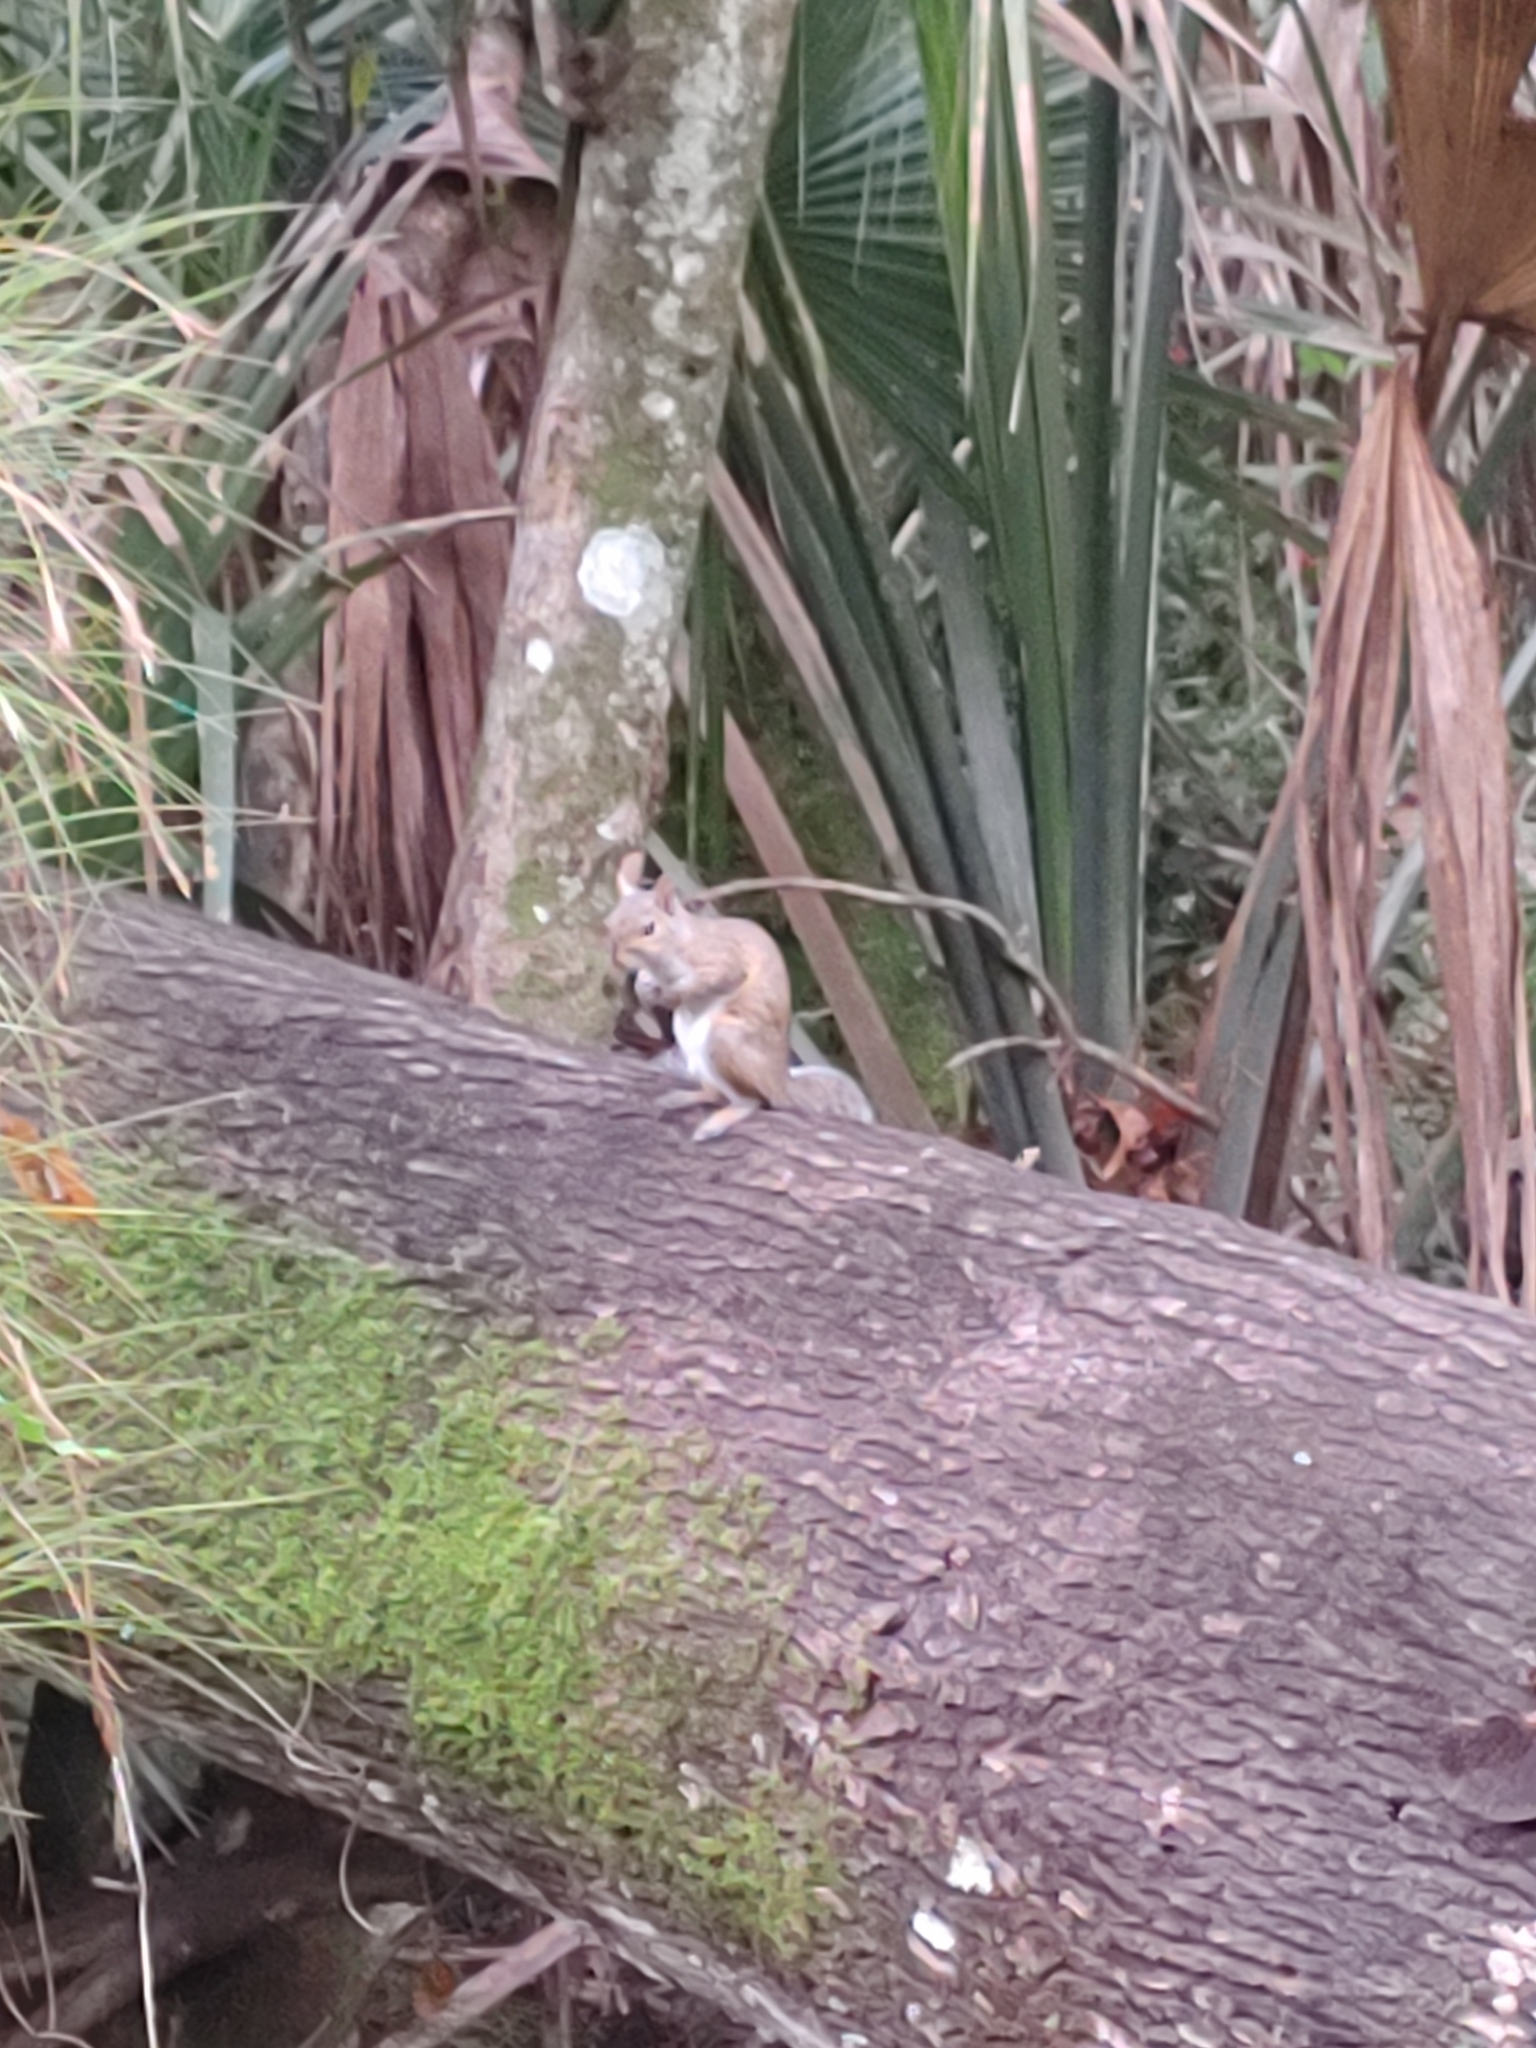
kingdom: Animalia
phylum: Chordata
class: Mammalia
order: Rodentia
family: Sciuridae
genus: Sciurus
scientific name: Sciurus carolinensis
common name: Eastern gray squirrel
